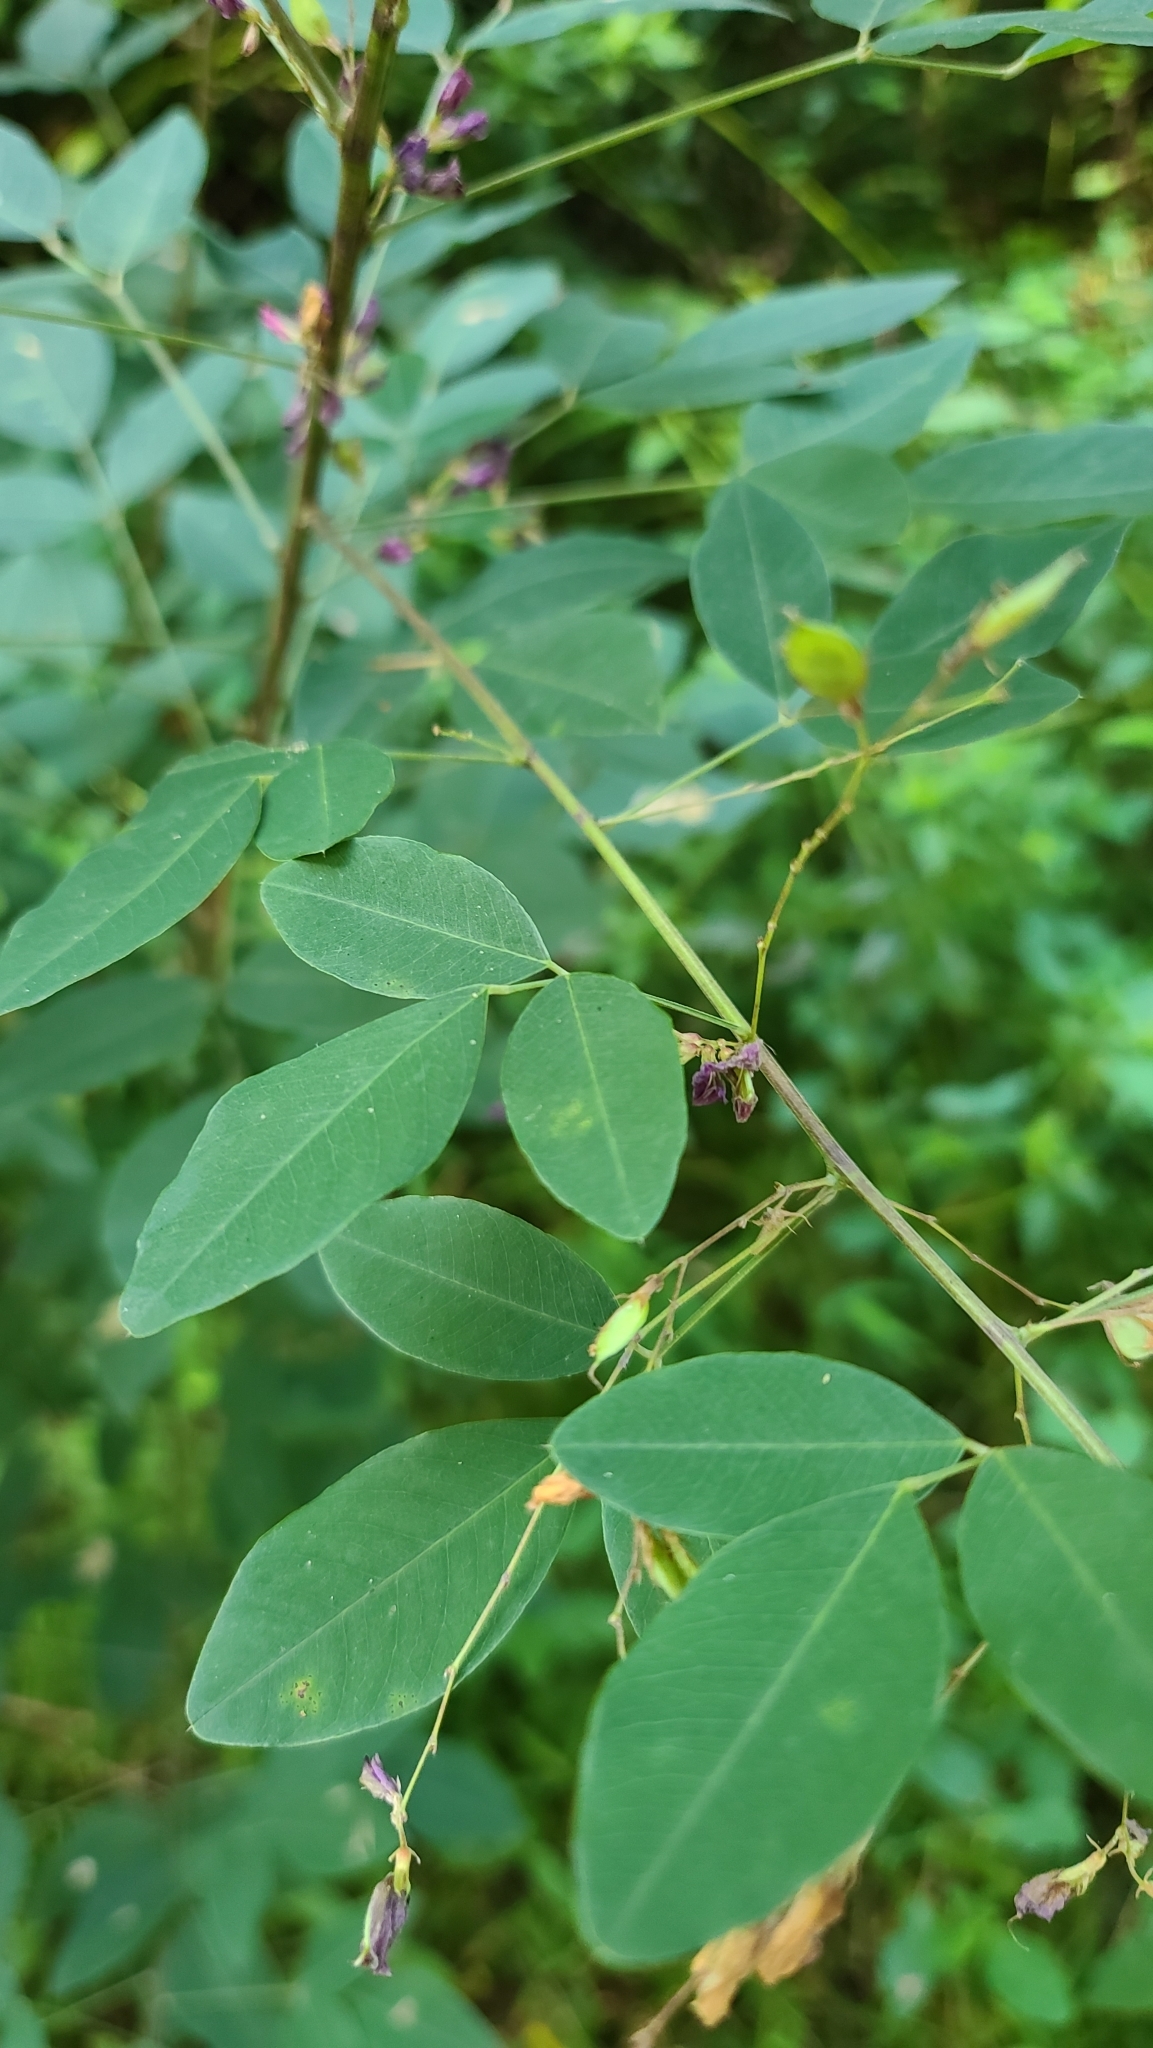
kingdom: Plantae
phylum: Tracheophyta
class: Magnoliopsida
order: Fabales
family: Fabaceae
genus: Lespedeza
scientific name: Lespedeza bicolor
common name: Shrub lespedeza
